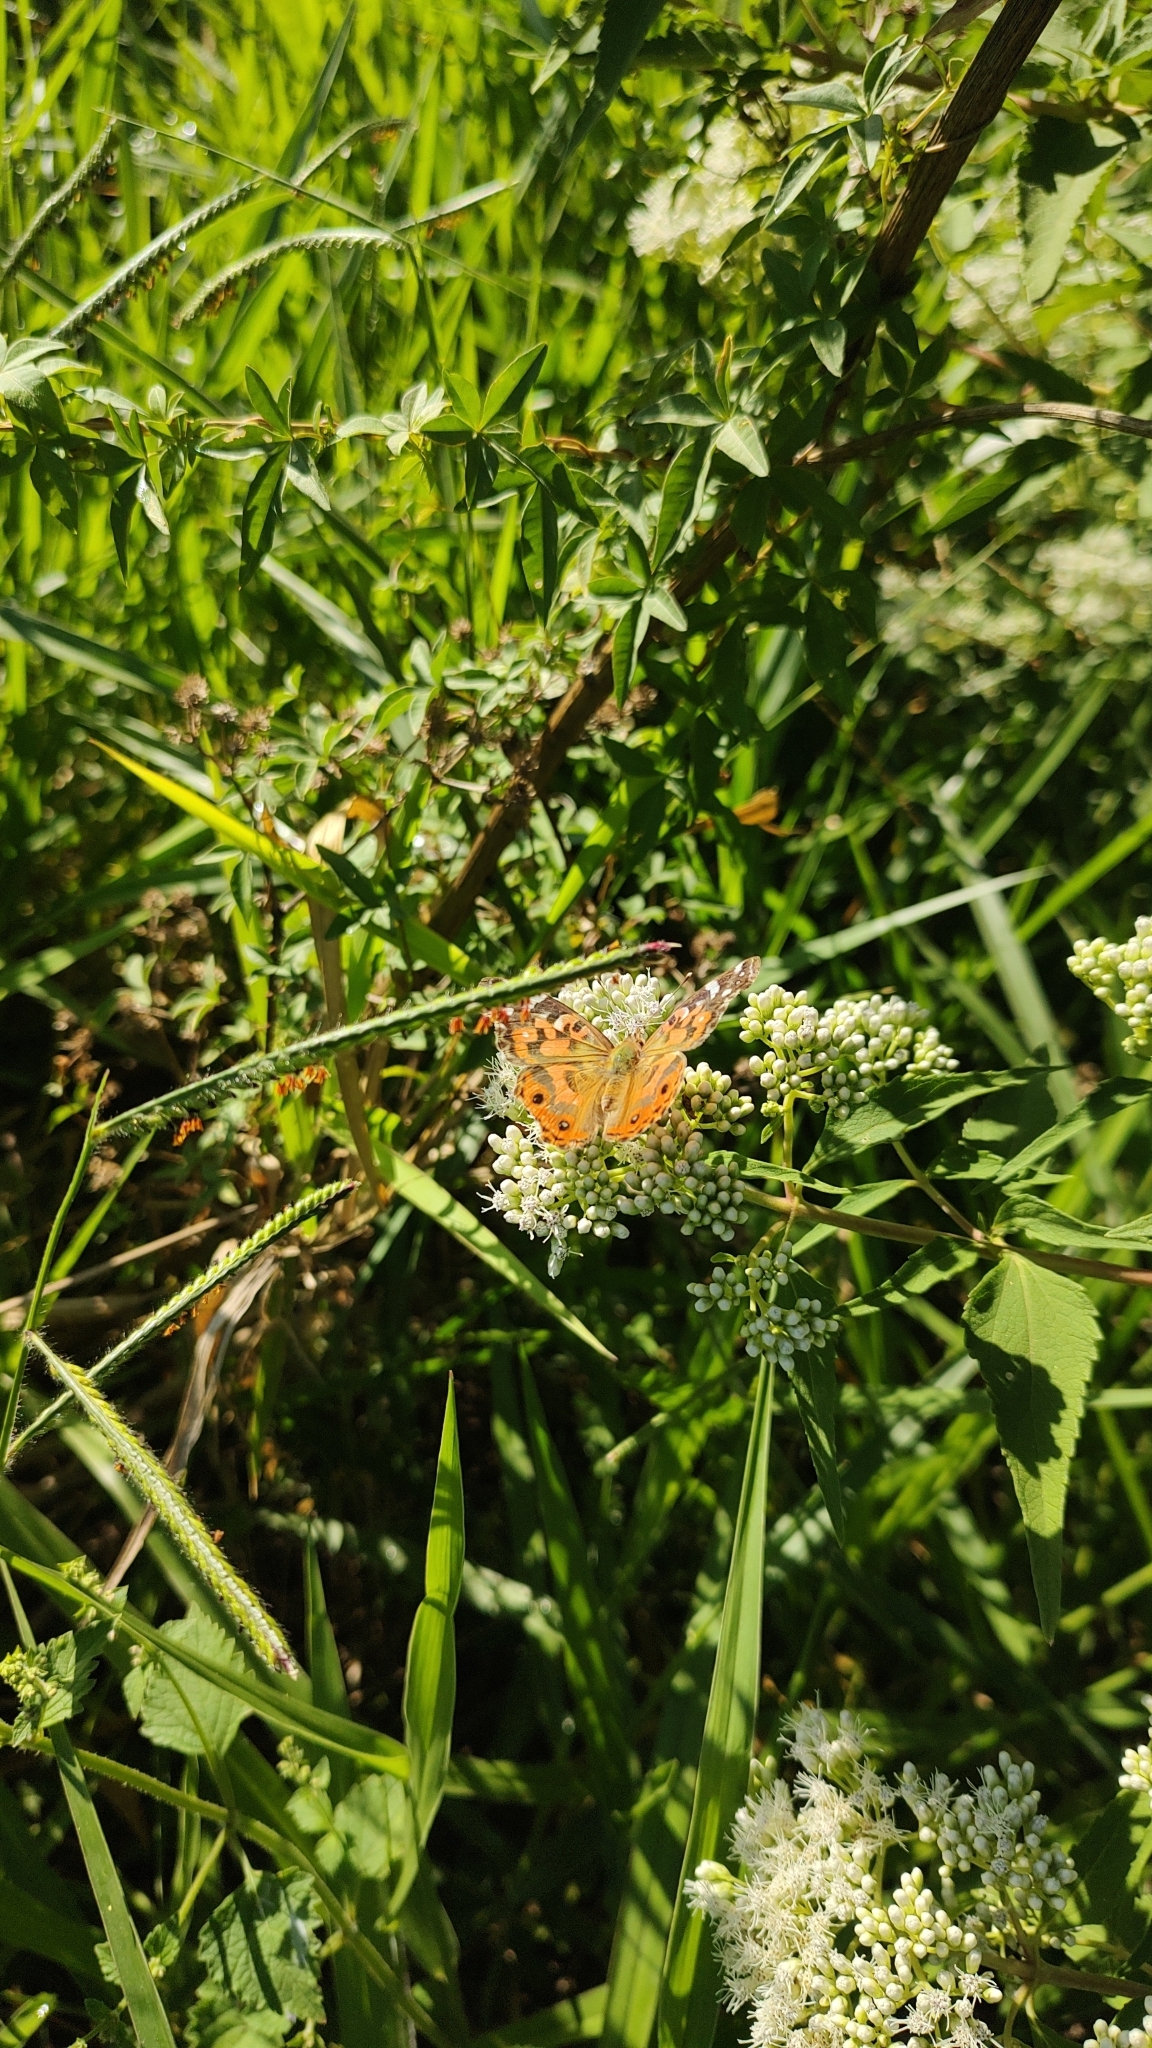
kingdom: Animalia
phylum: Arthropoda
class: Insecta
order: Lepidoptera
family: Nymphalidae
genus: Vanessa
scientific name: Vanessa braziliensis
